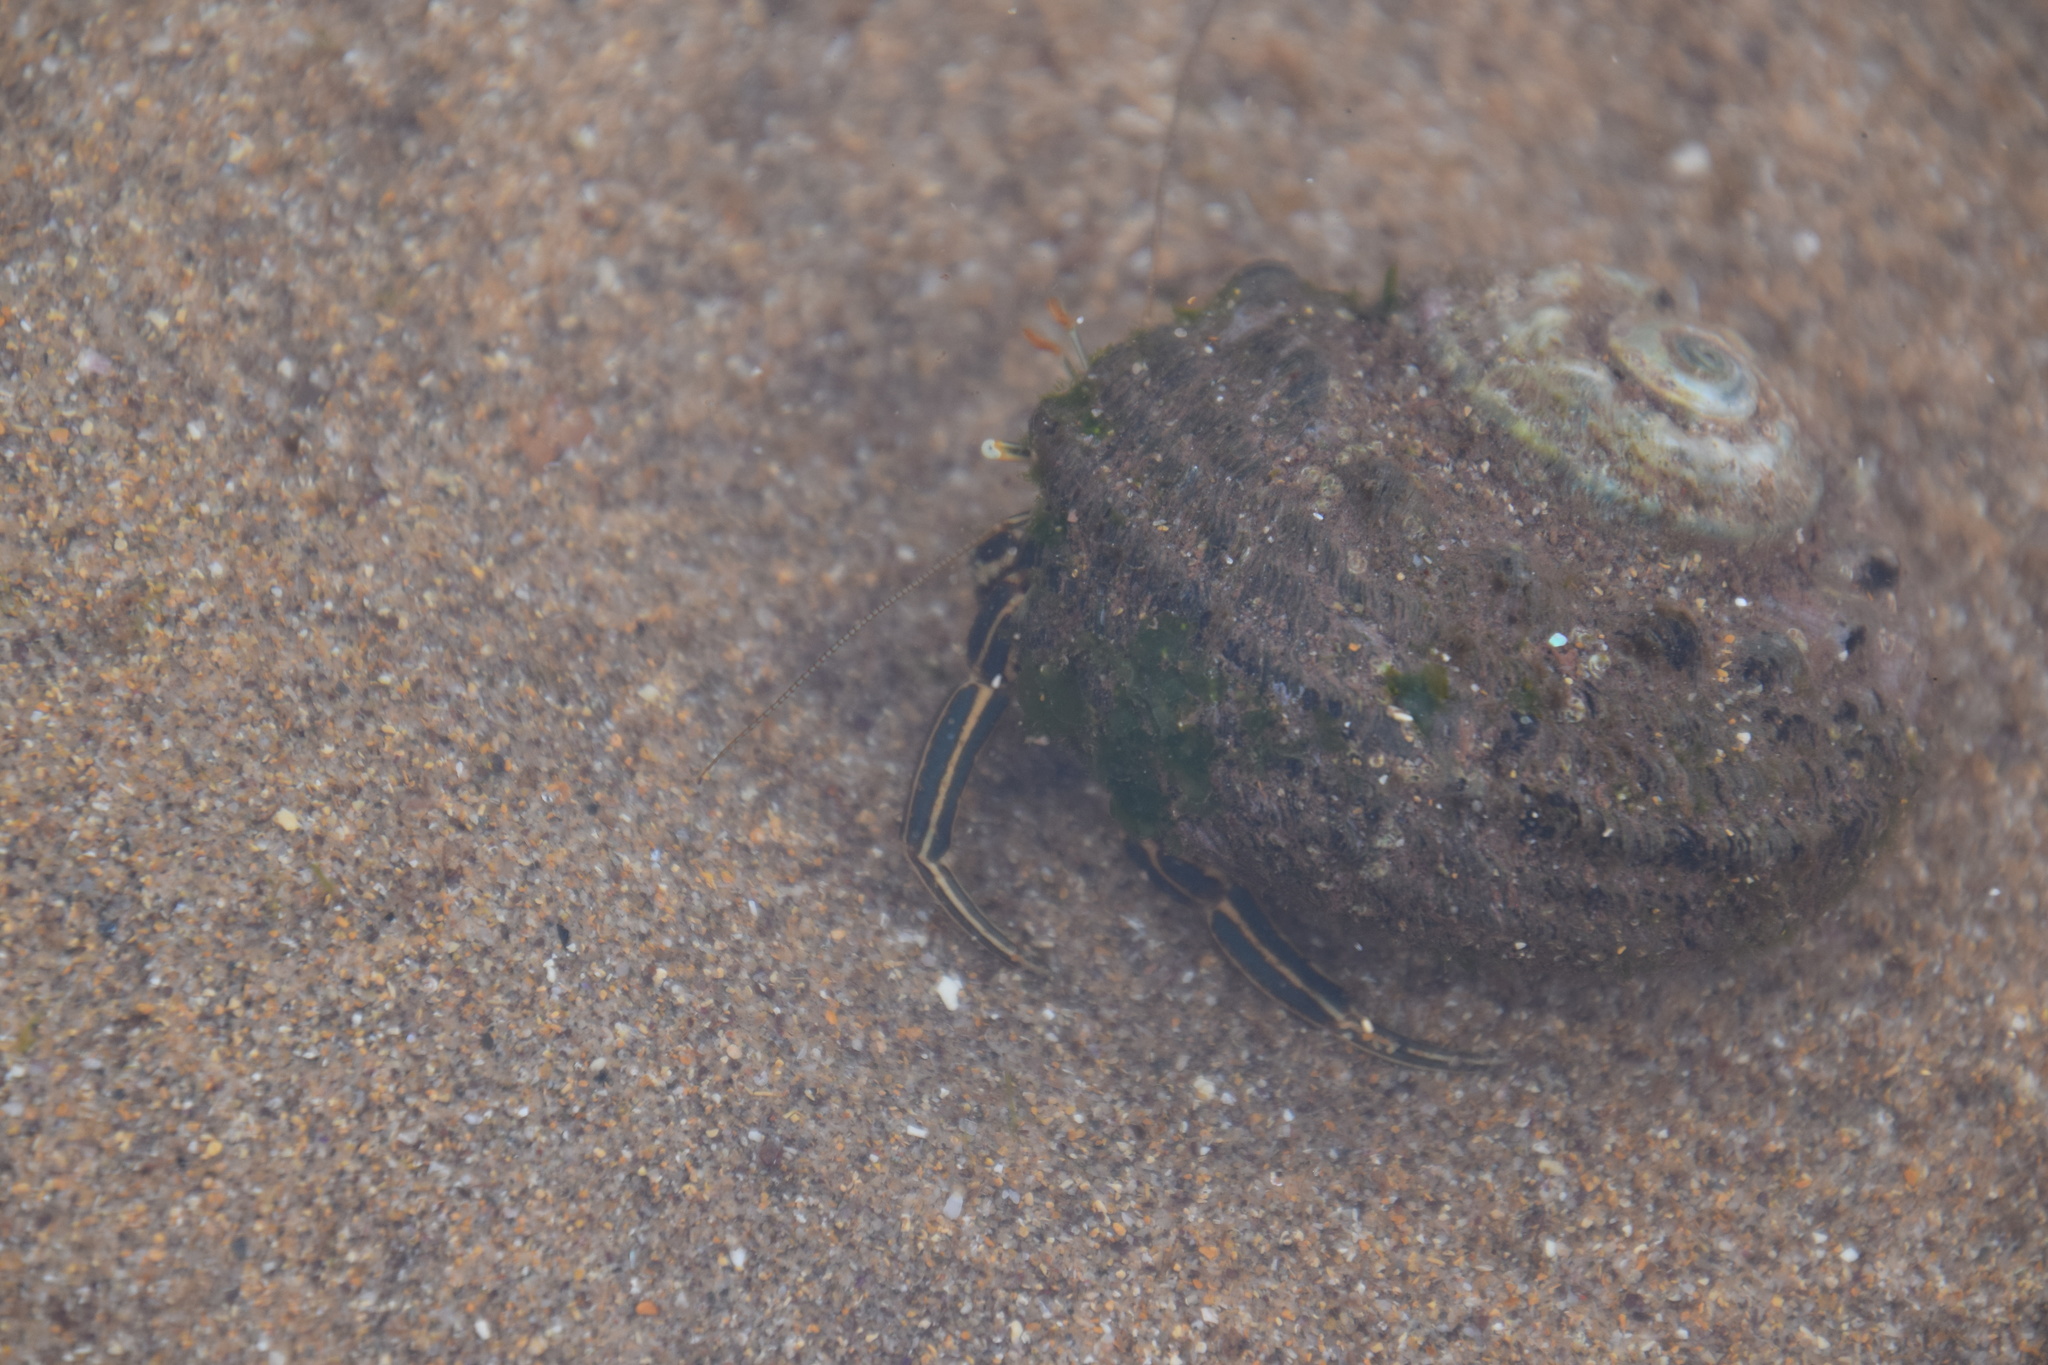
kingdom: Animalia
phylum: Arthropoda
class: Malacostraca
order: Decapoda
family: Diogenidae
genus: Clibanarius
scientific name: Clibanarius taeniatus
